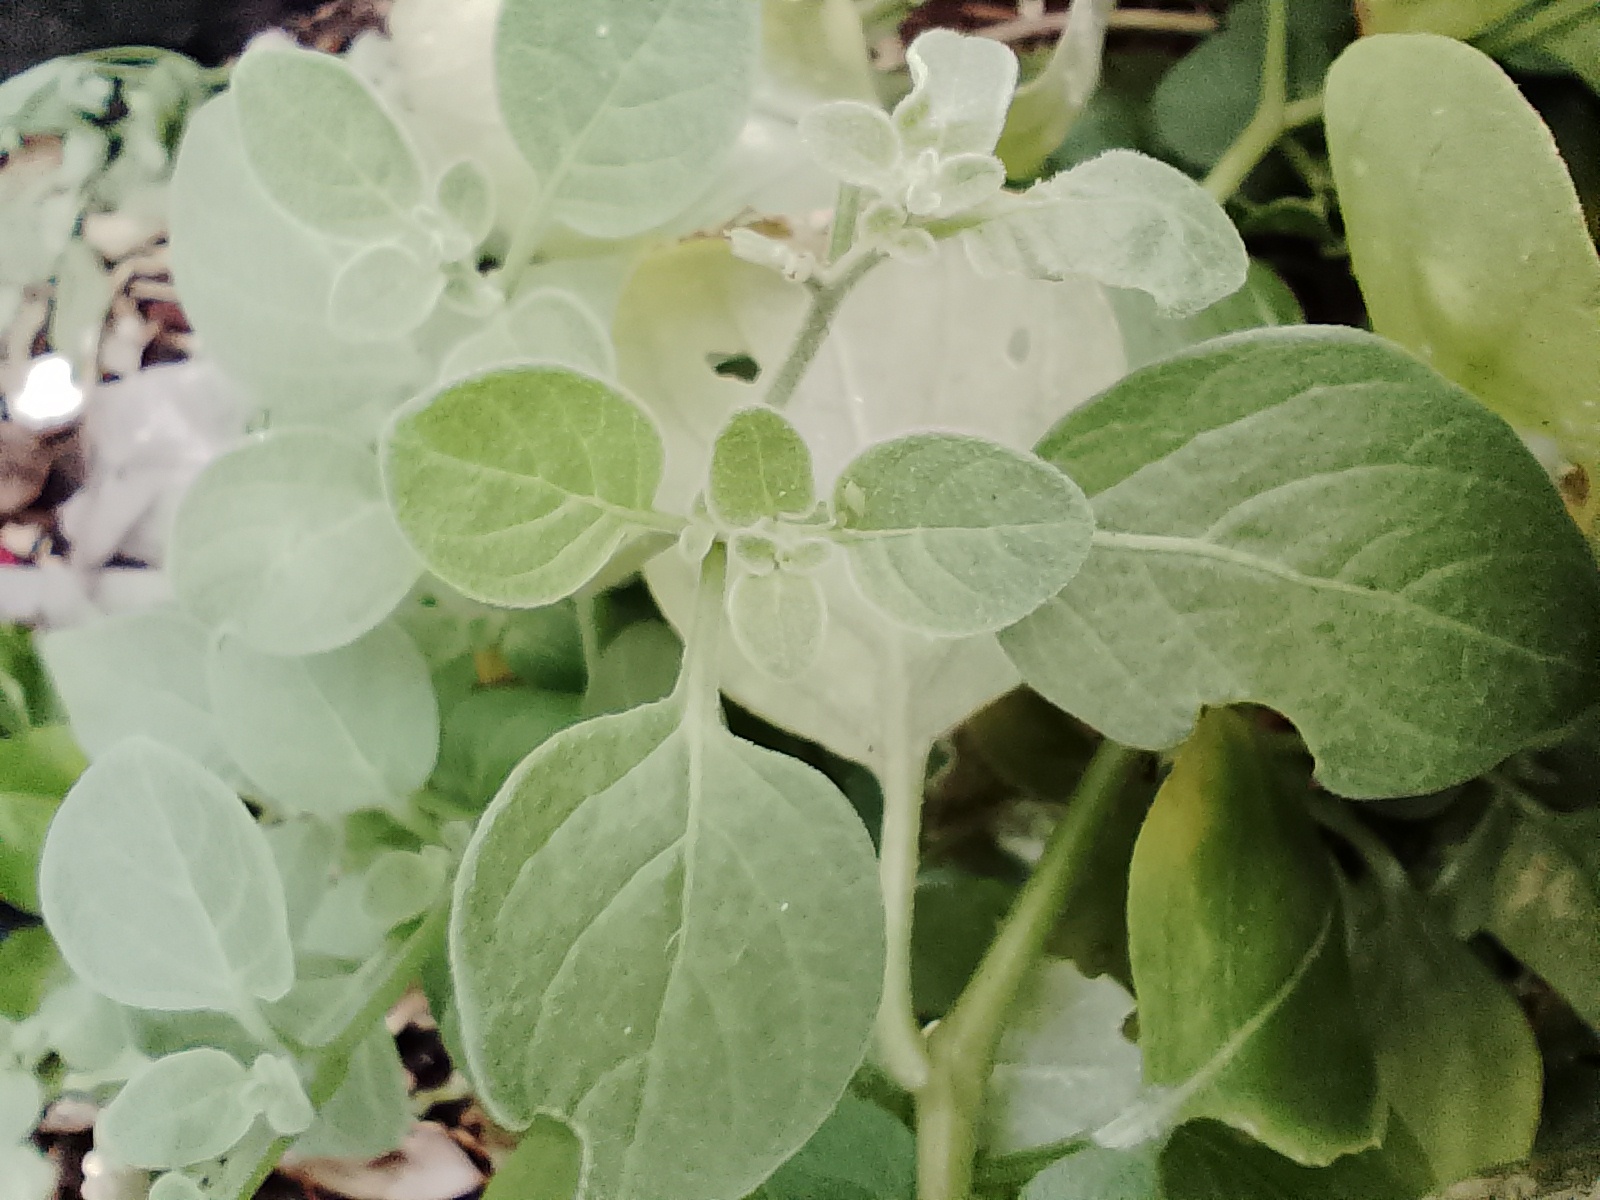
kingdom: Plantae
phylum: Tracheophyta
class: Magnoliopsida
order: Solanales
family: Solanaceae
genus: Salpichroa
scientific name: Salpichroa origanifolia
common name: Lily-of-the-valley-vine
